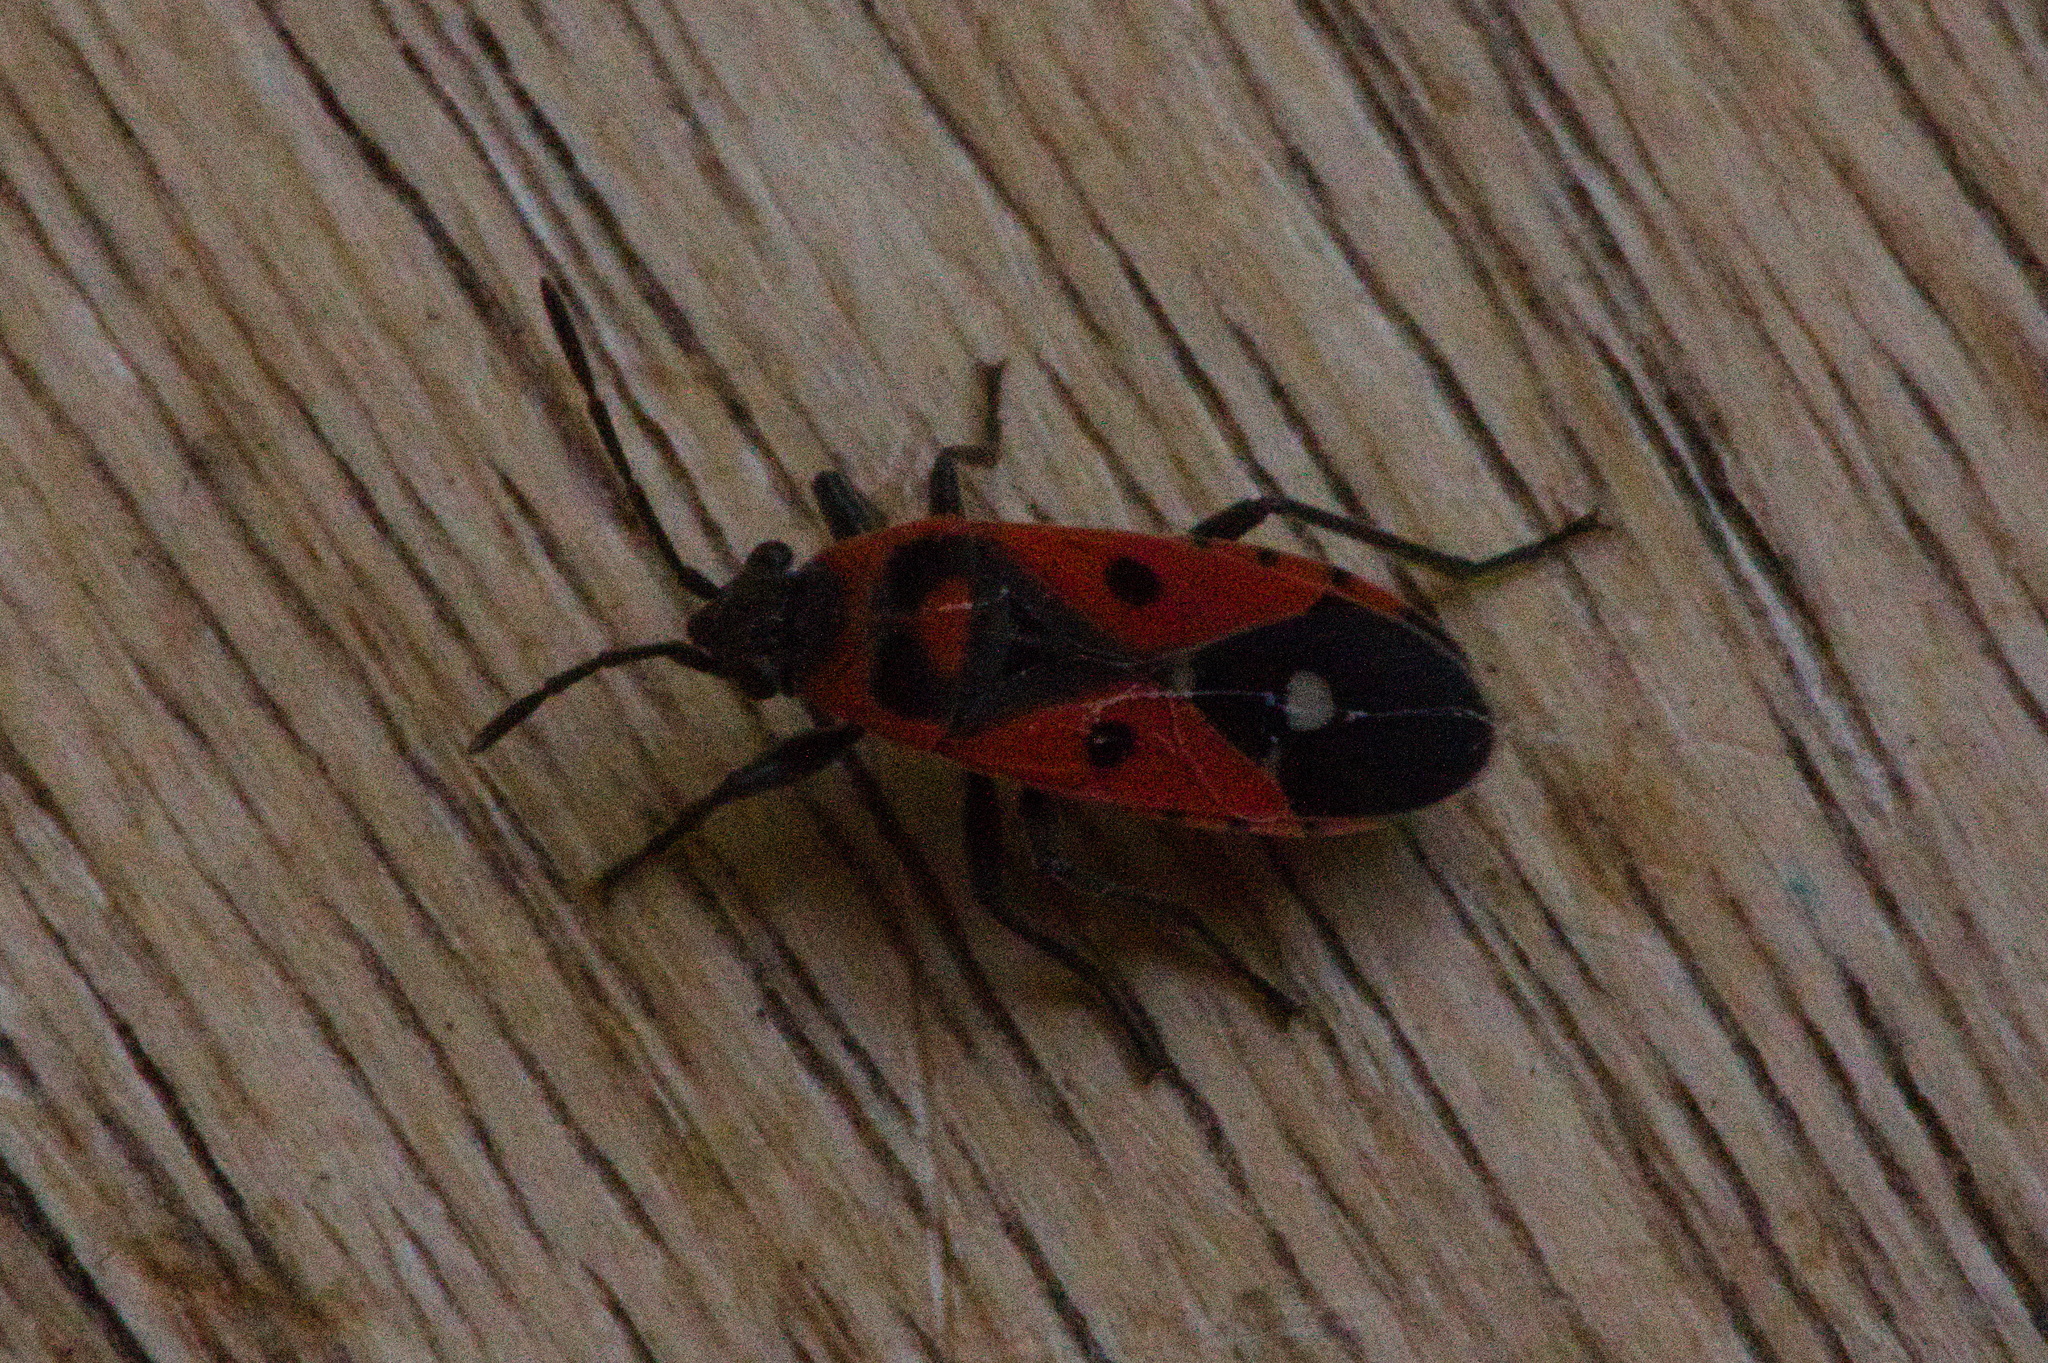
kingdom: Animalia
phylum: Arthropoda
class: Insecta
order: Hemiptera
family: Lygaeidae
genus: Melanocoryphus
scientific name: Melanocoryphus albomaculatus
